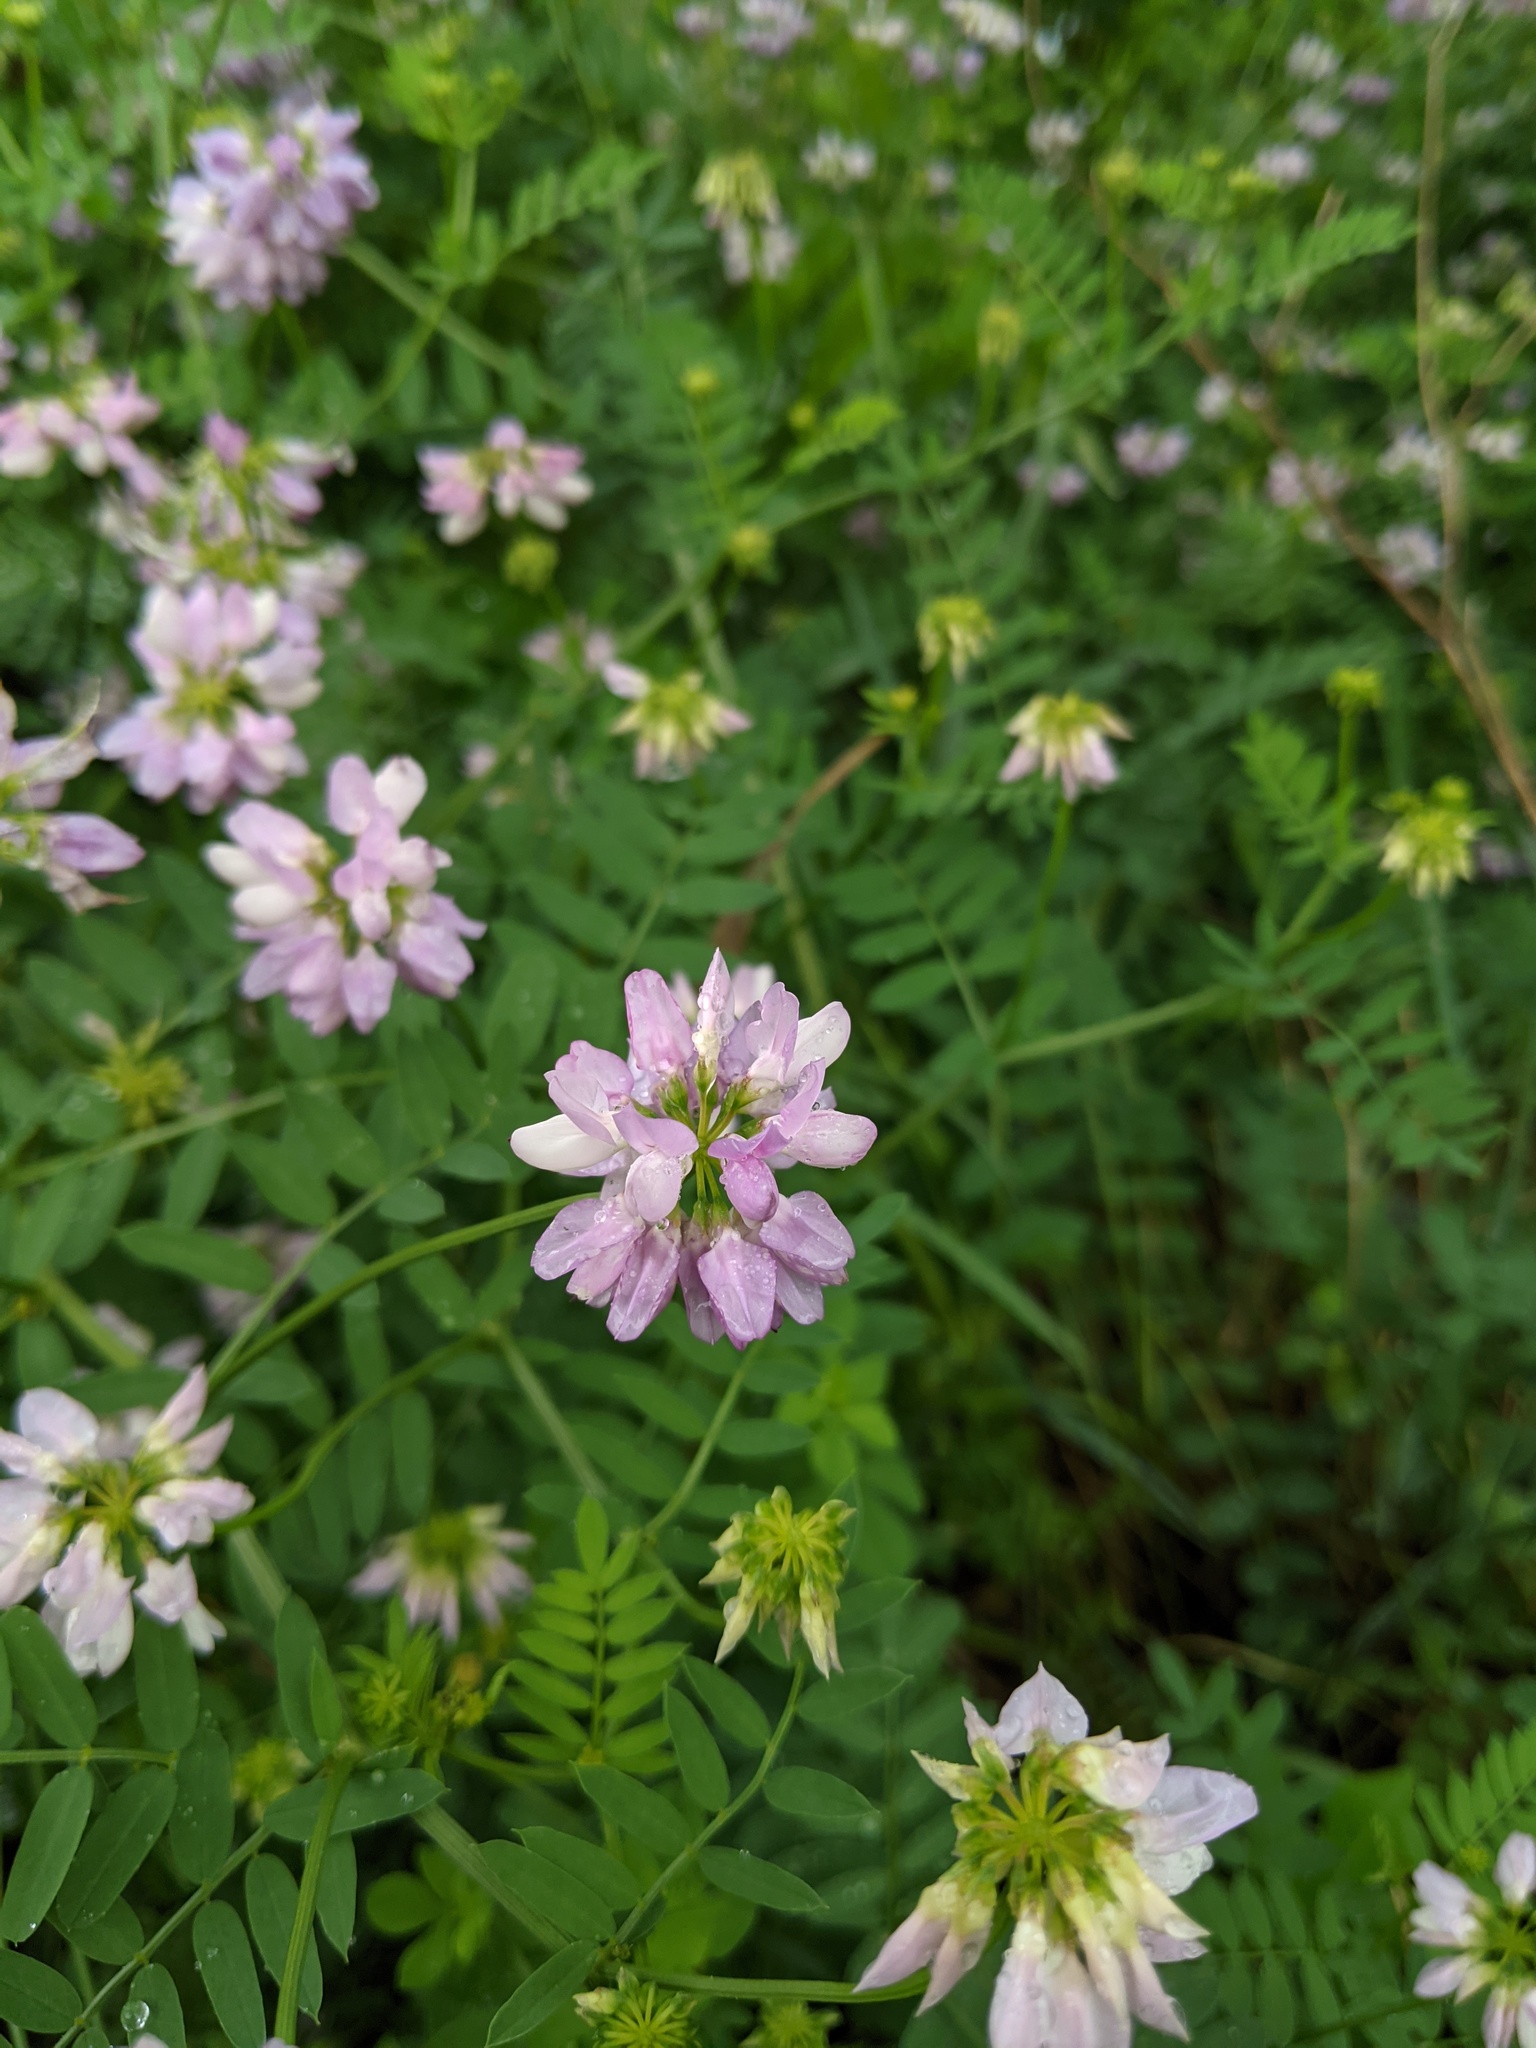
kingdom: Plantae
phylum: Tracheophyta
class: Magnoliopsida
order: Fabales
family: Fabaceae
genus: Coronilla
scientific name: Coronilla varia
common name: Crownvetch
